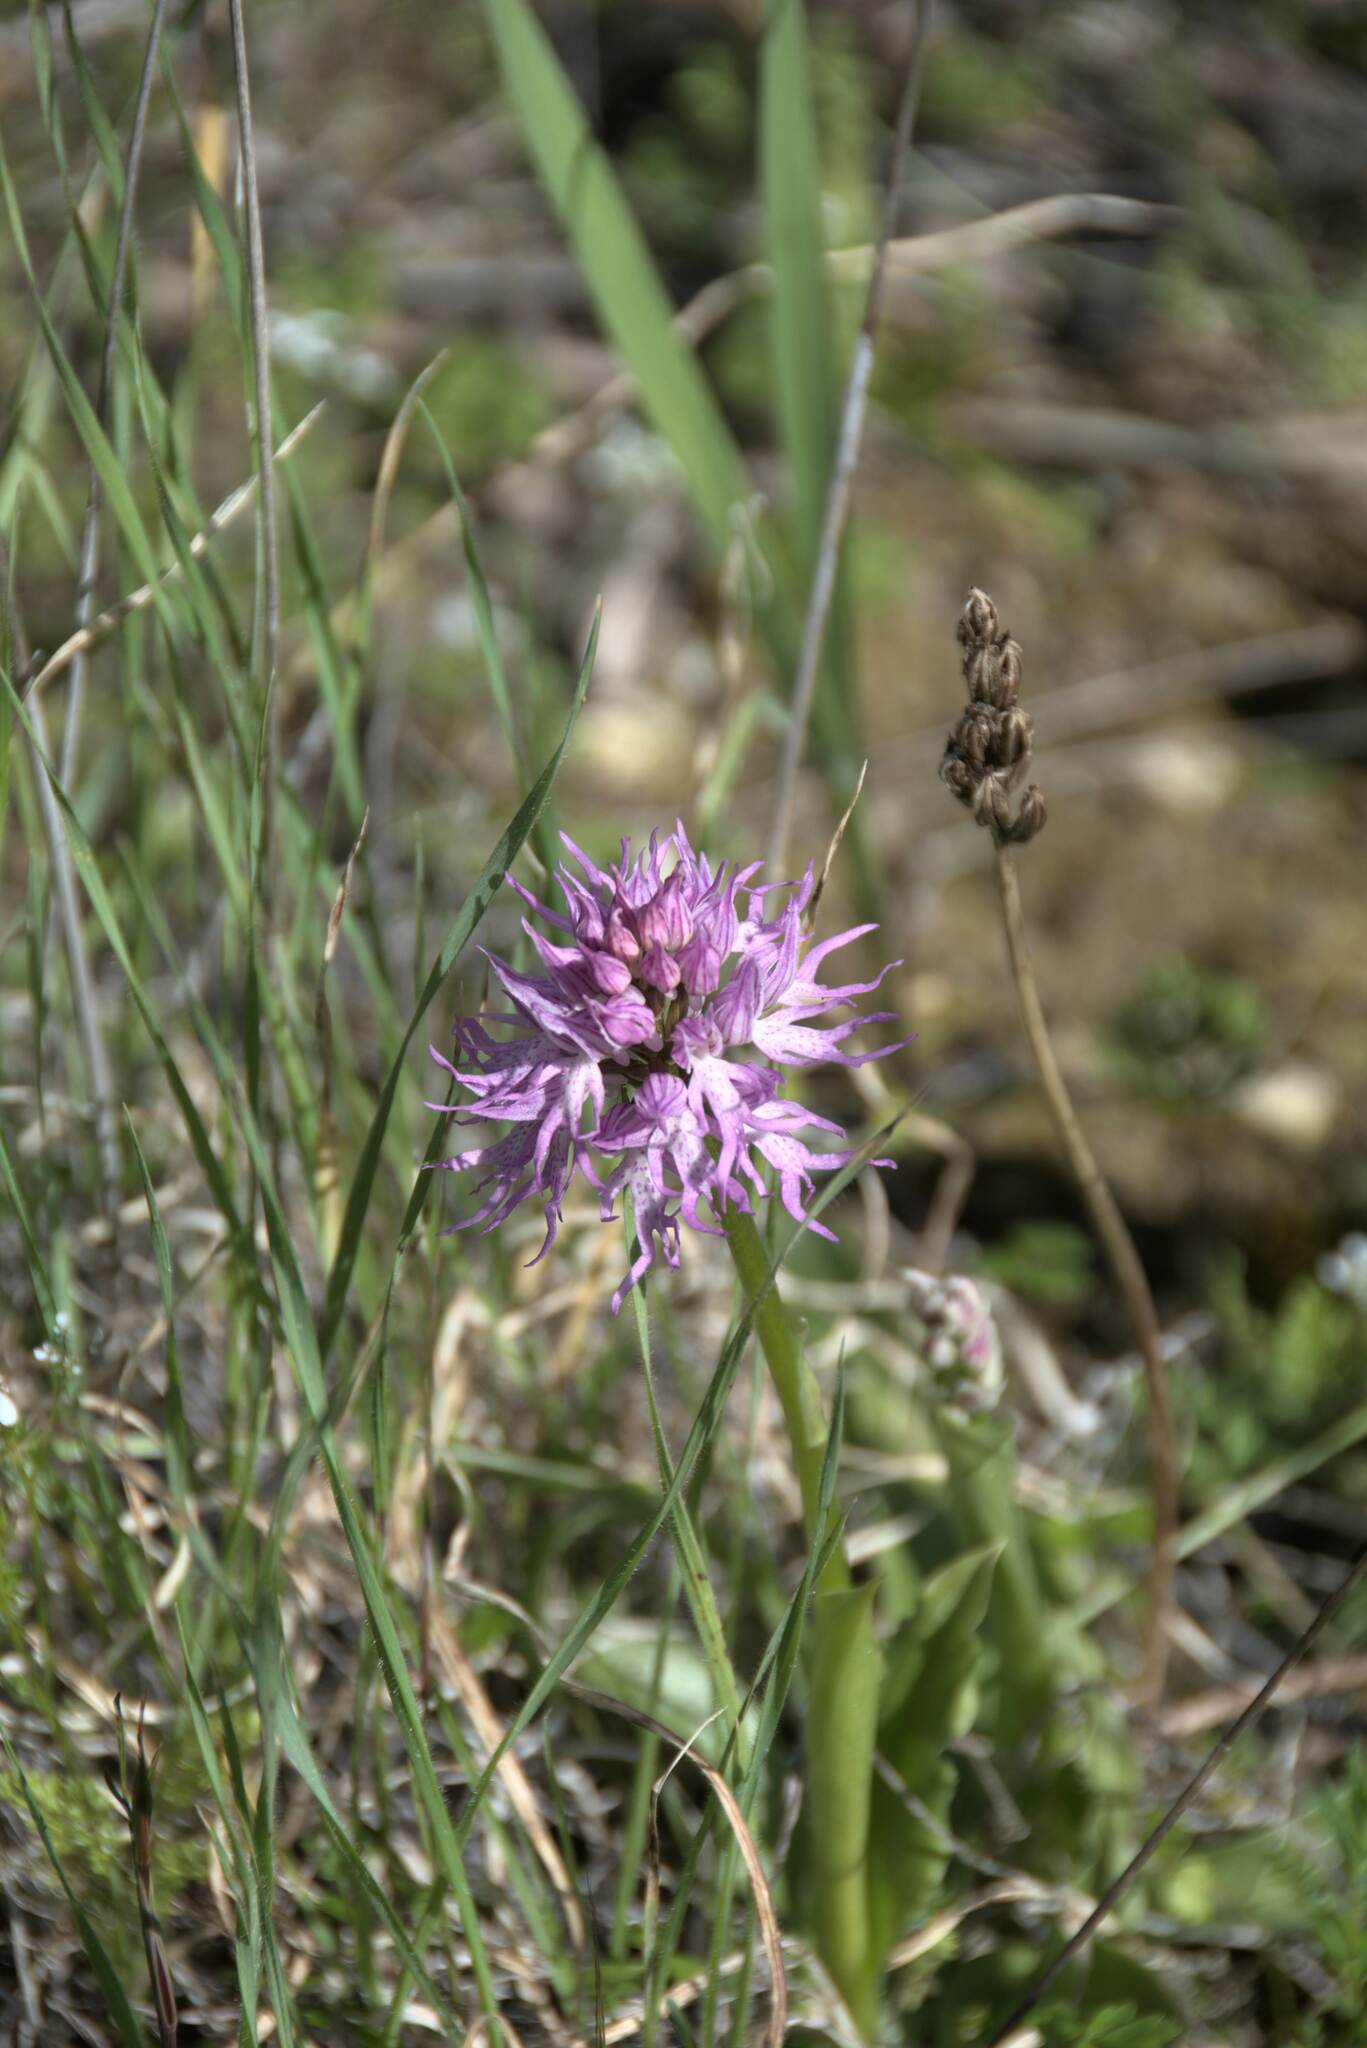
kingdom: Plantae
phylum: Tracheophyta
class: Liliopsida
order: Asparagales
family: Orchidaceae
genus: Orchis
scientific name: Orchis italica
